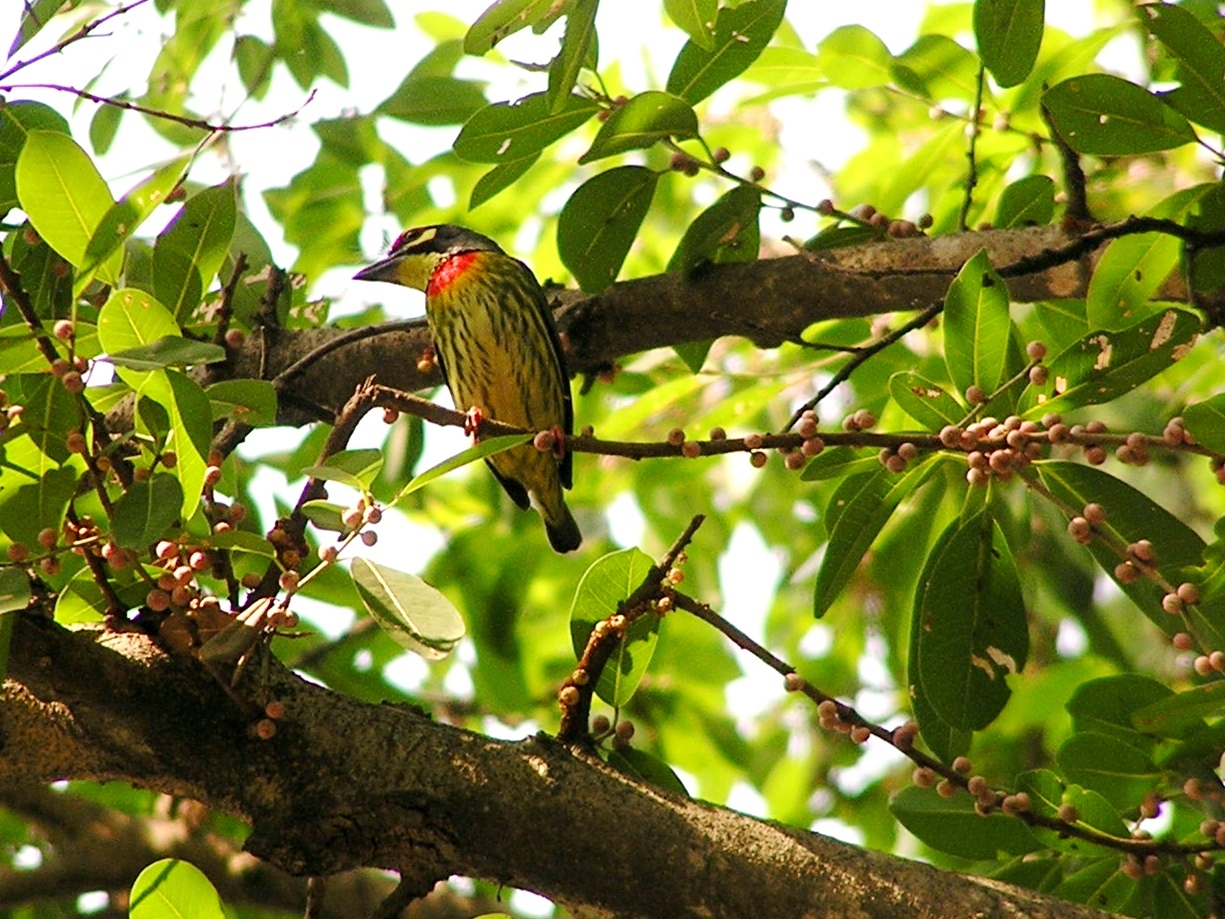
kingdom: Animalia
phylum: Chordata
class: Aves
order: Piciformes
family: Megalaimidae
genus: Psilopogon
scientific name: Psilopogon haemacephalus
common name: Coppersmith barbet
